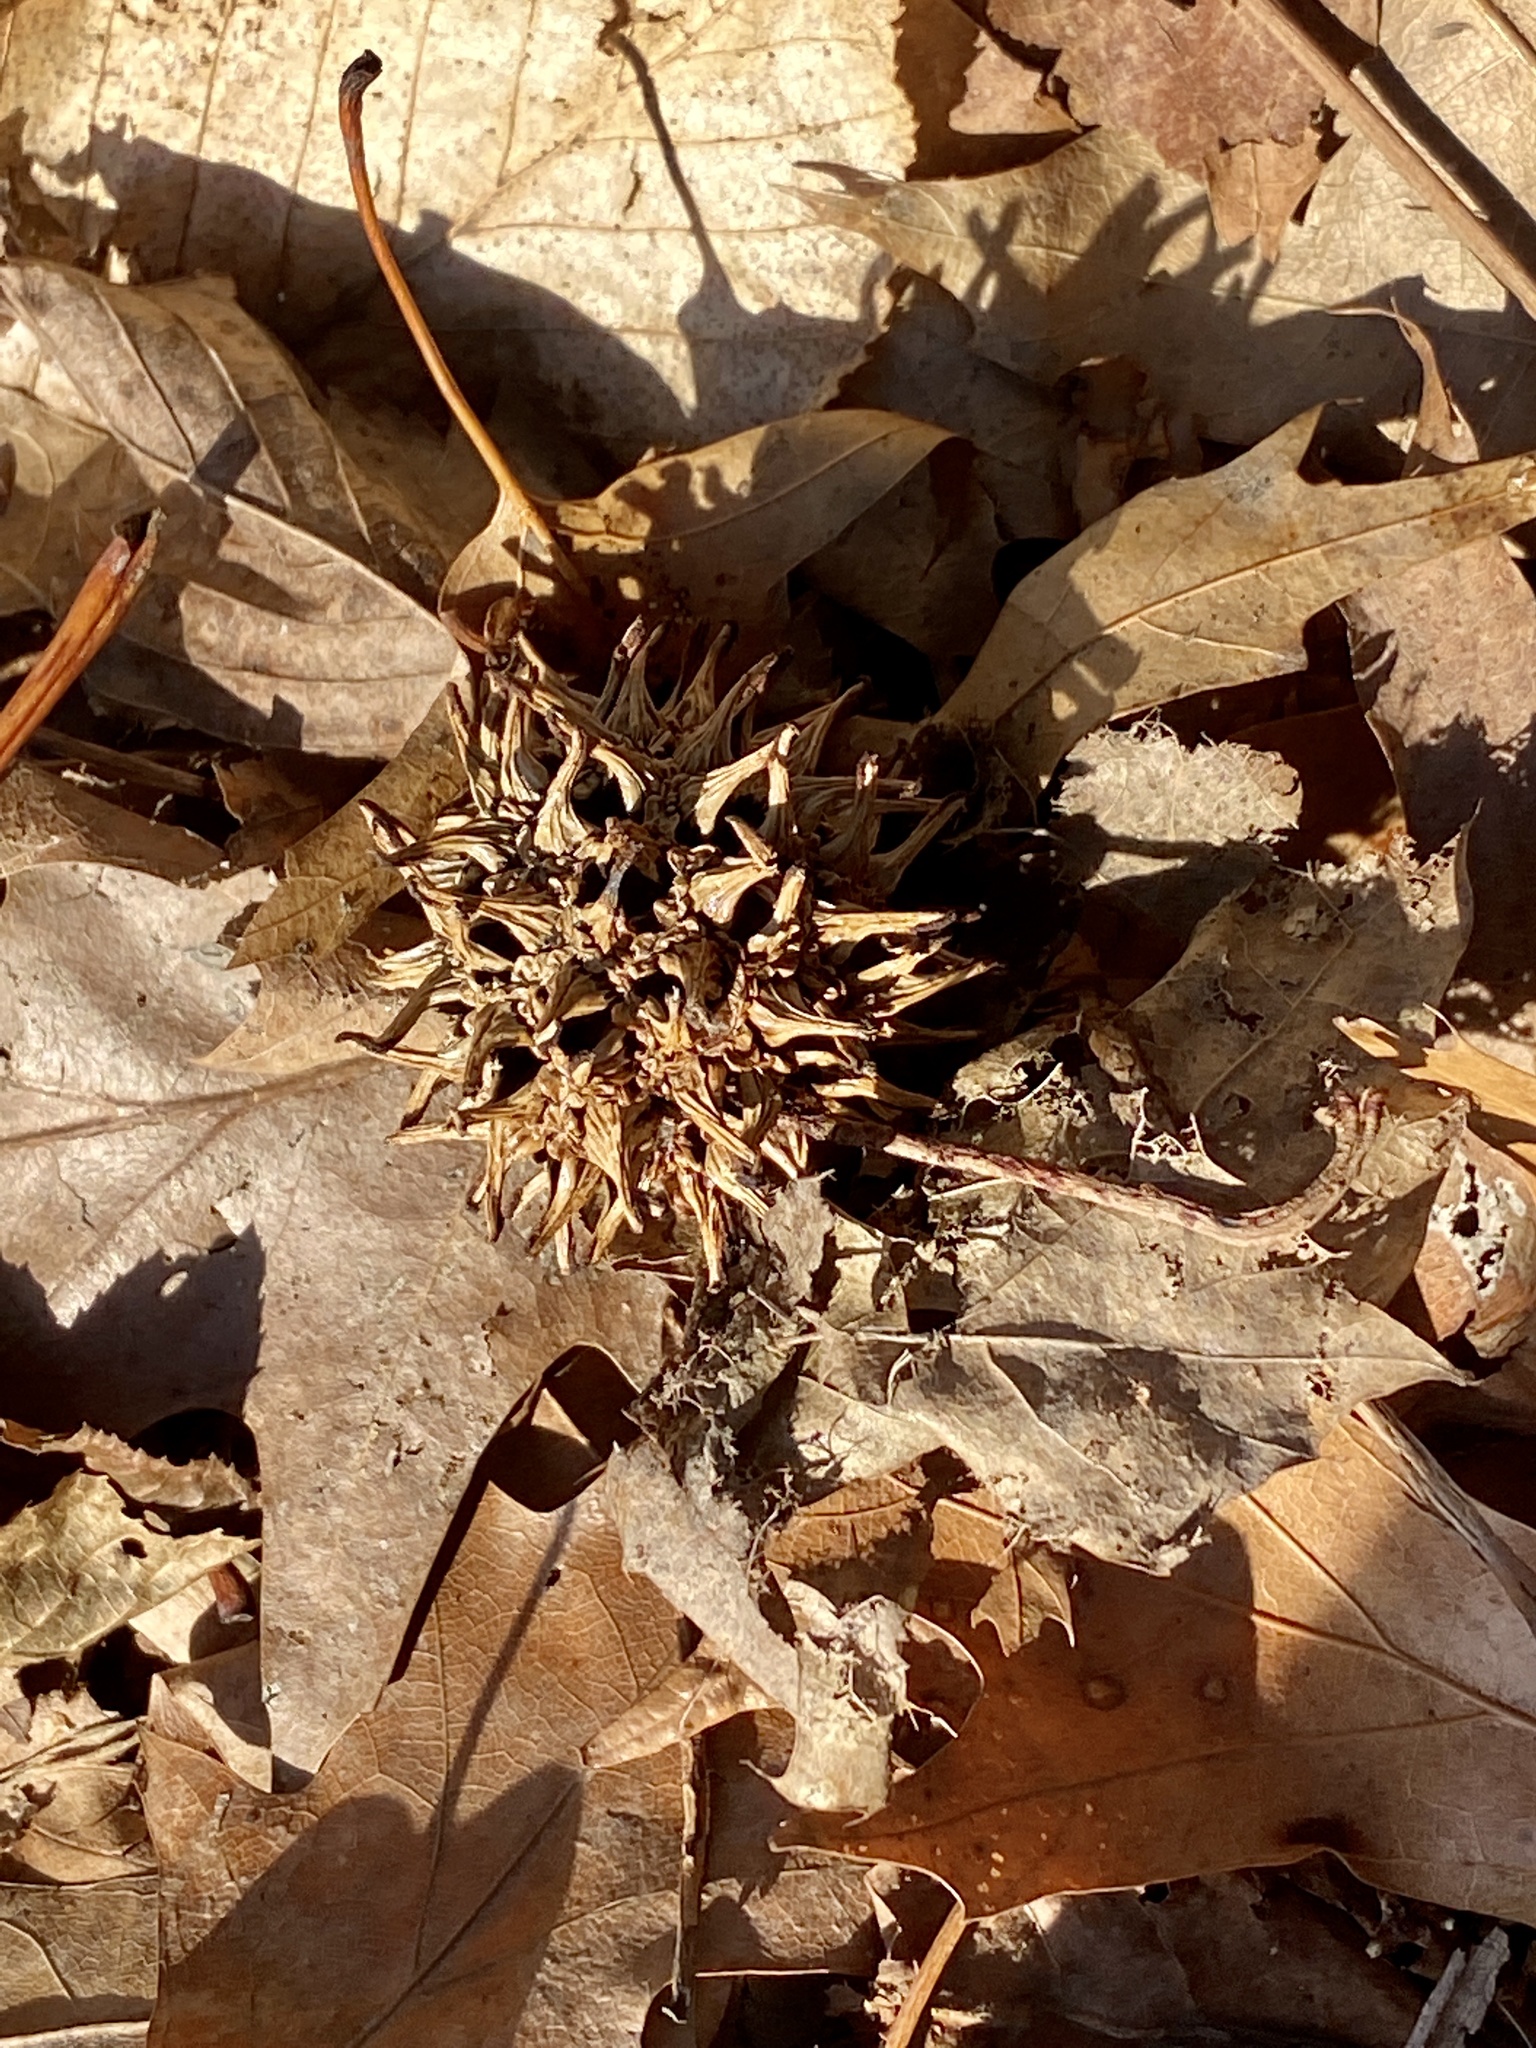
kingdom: Plantae
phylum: Tracheophyta
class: Magnoliopsida
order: Saxifragales
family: Altingiaceae
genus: Liquidambar
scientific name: Liquidambar styraciflua
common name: Sweet gum
